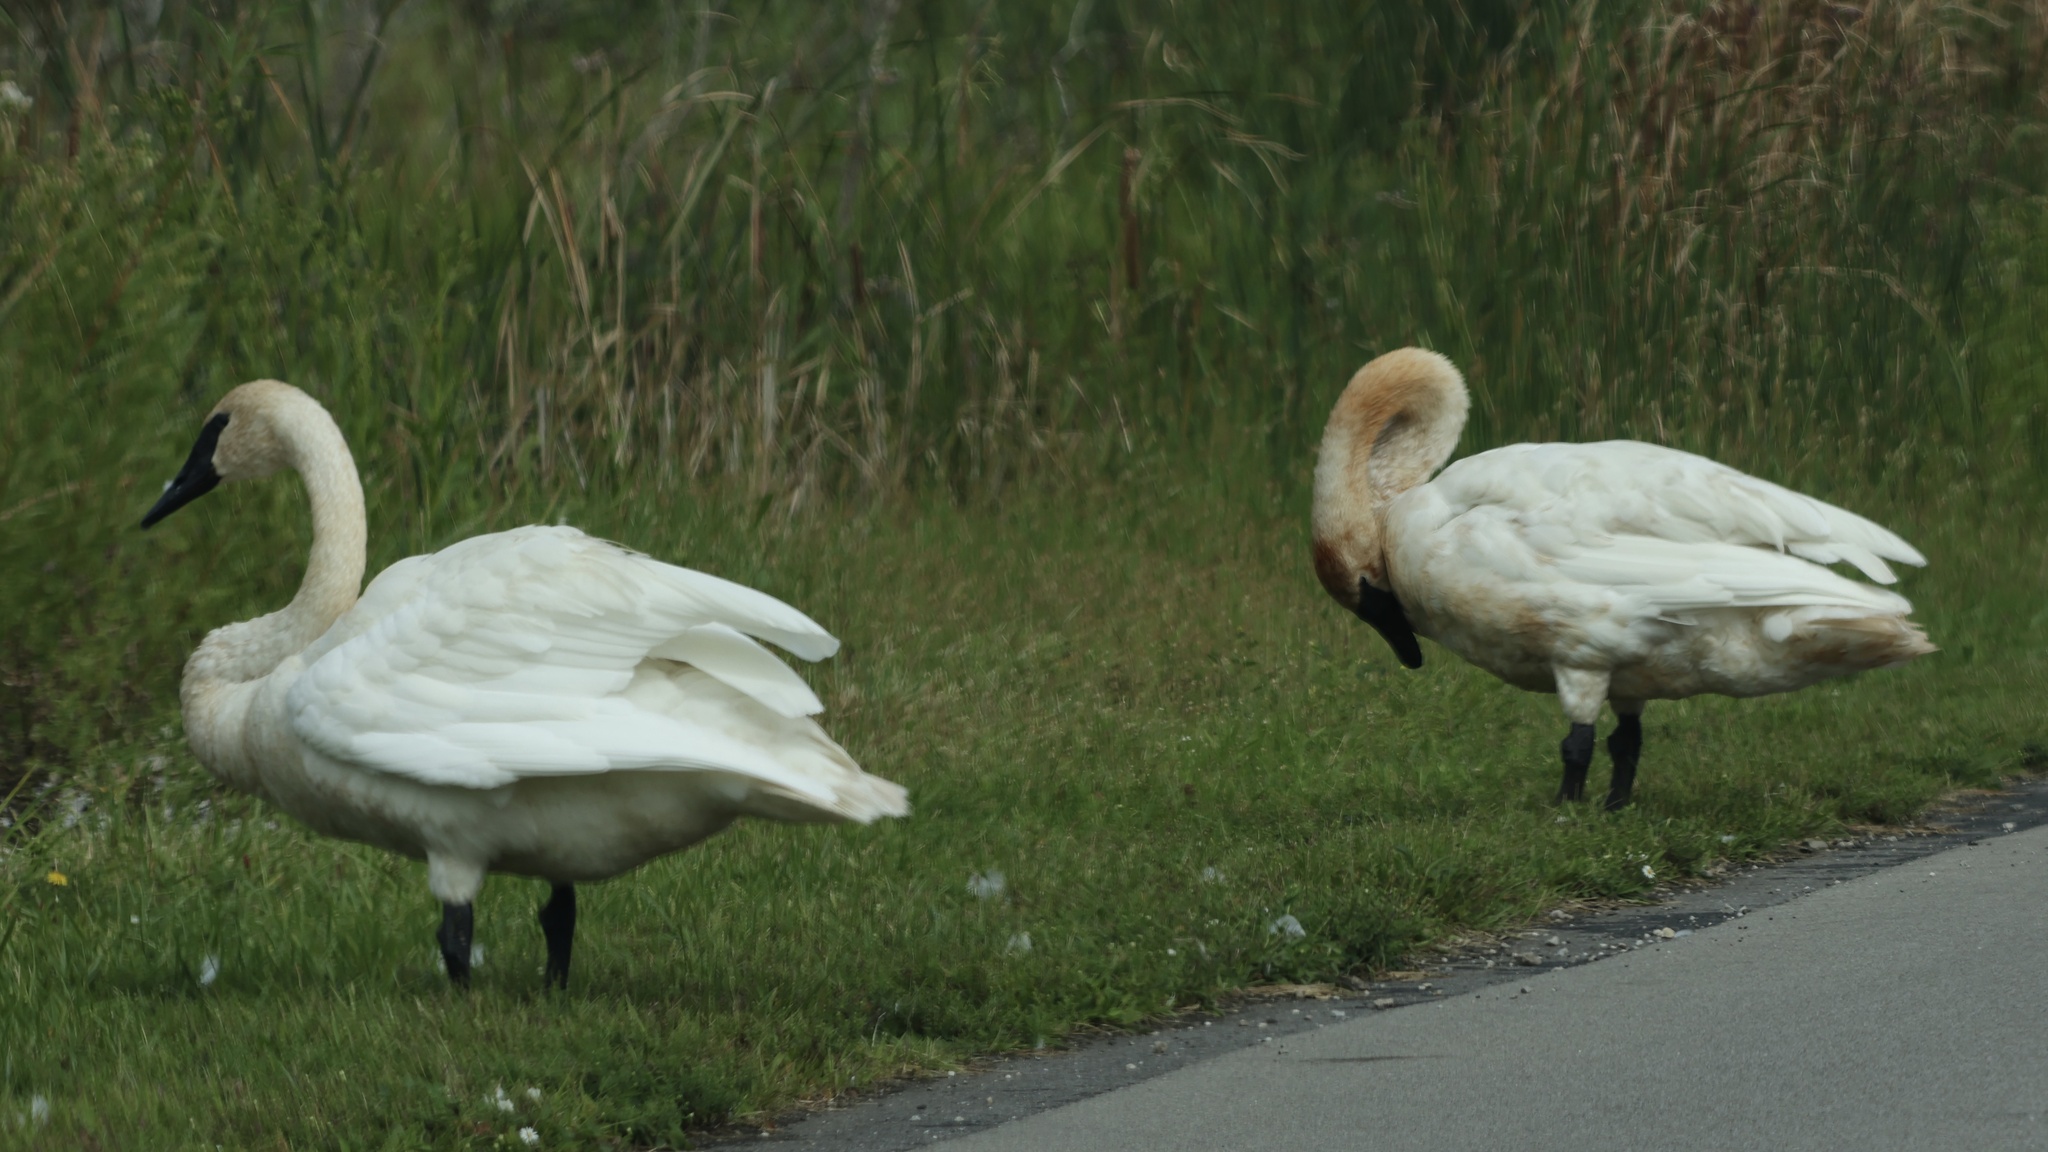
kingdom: Animalia
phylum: Chordata
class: Aves
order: Anseriformes
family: Anatidae
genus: Cygnus
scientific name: Cygnus buccinator
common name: Trumpeter swan
